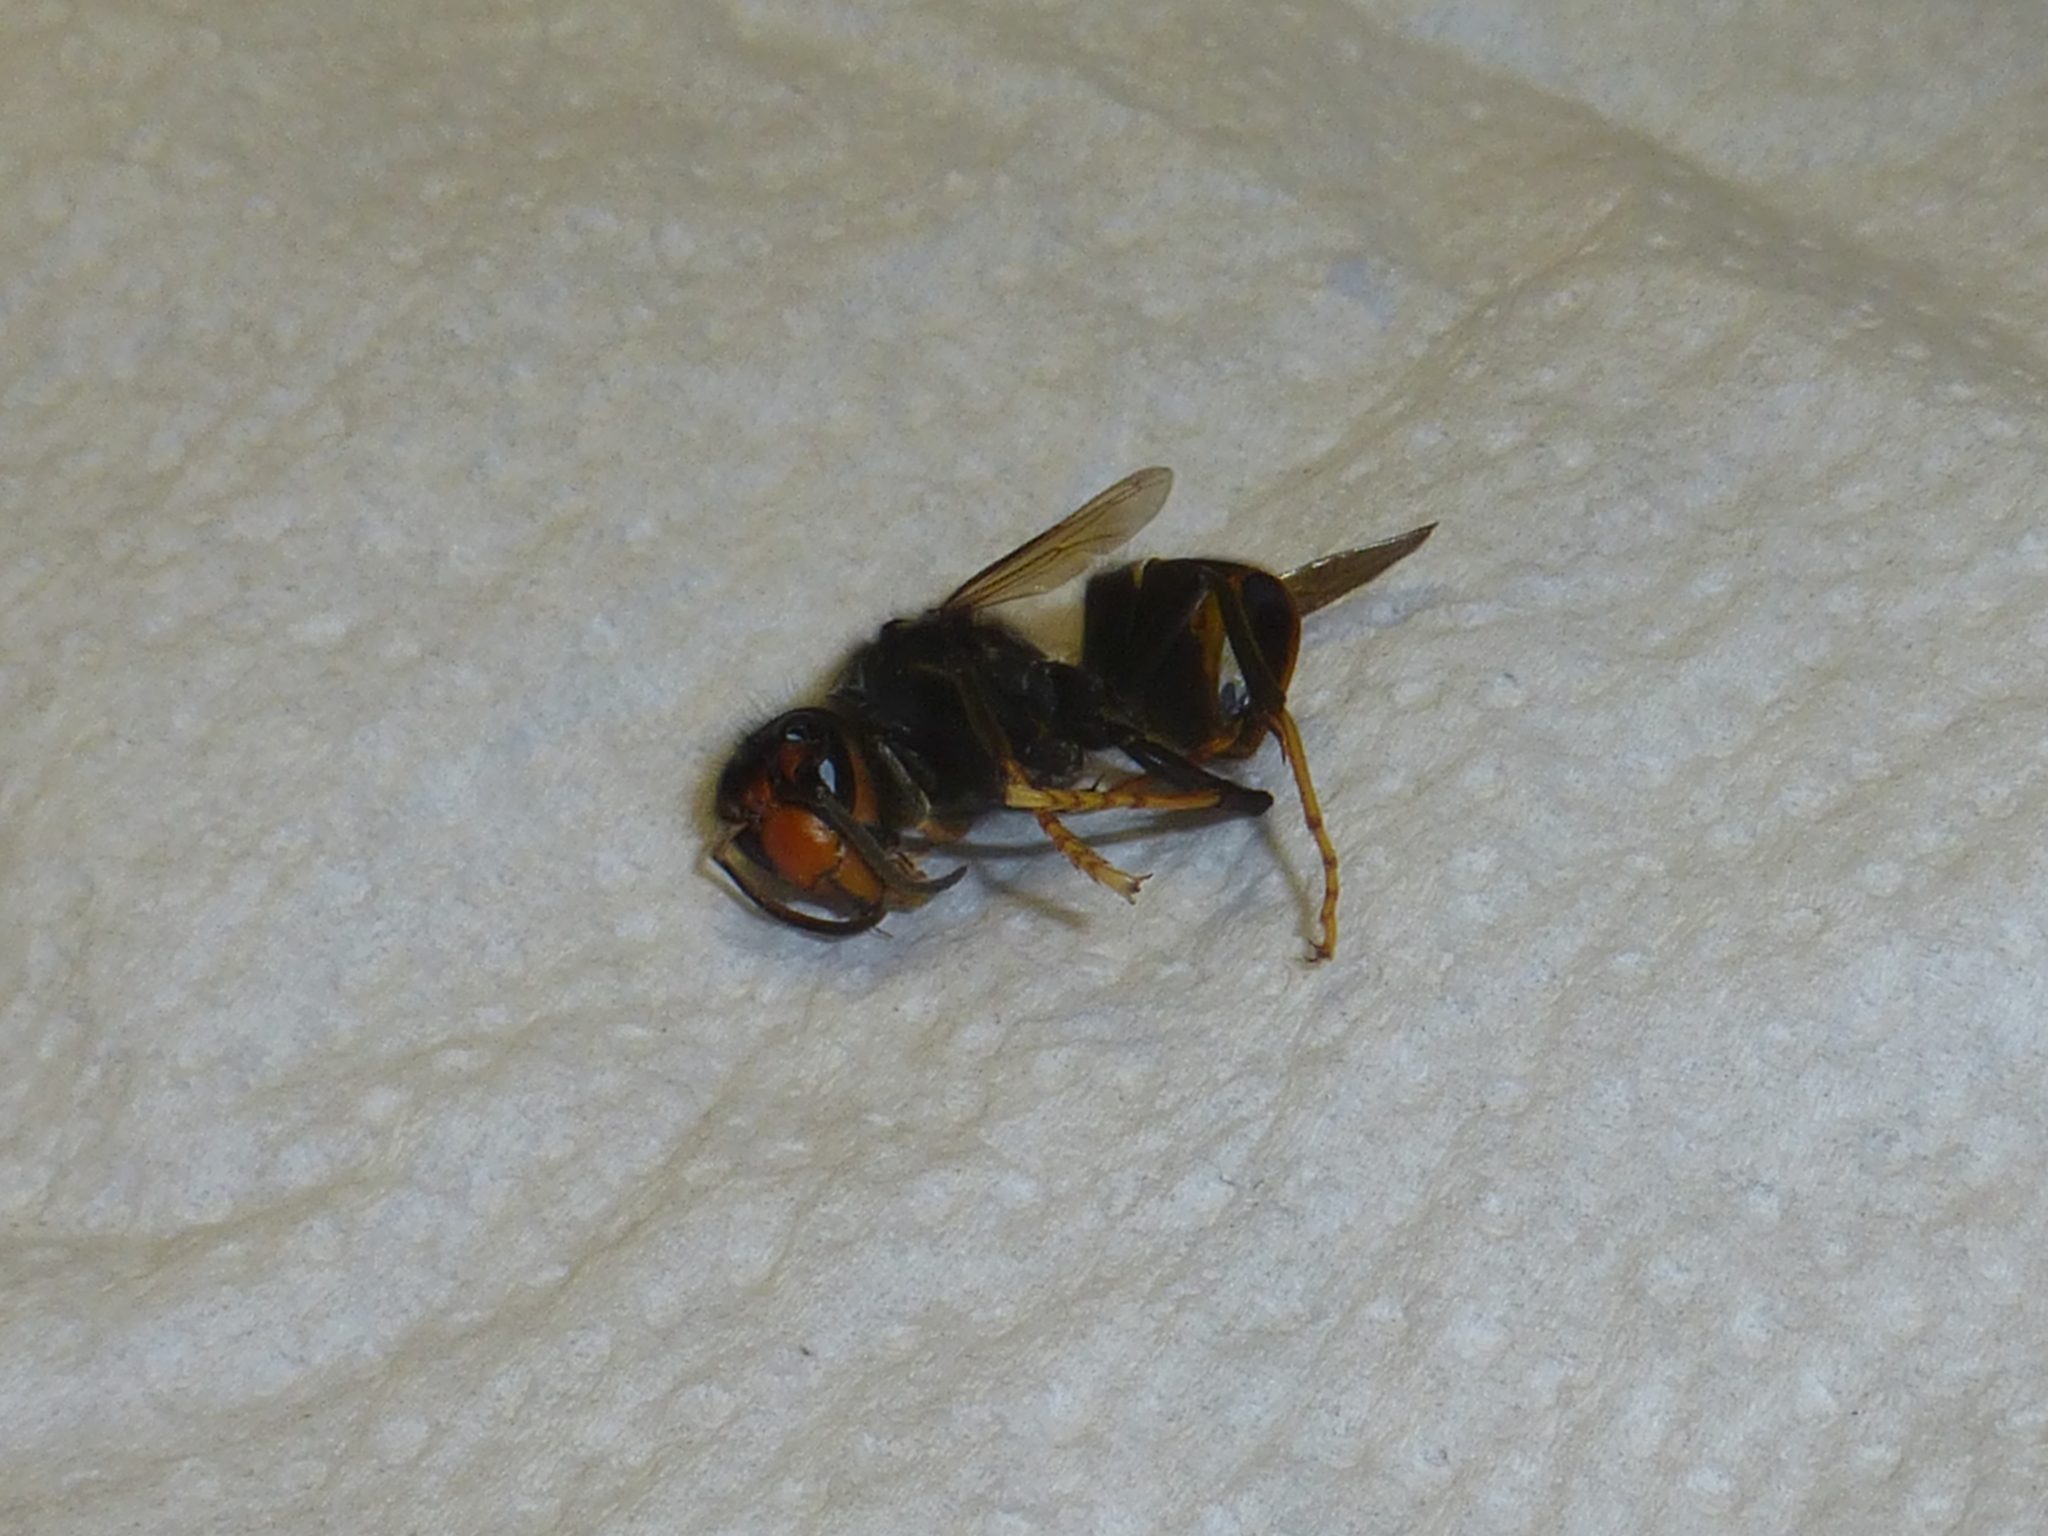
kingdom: Animalia
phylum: Arthropoda
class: Insecta
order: Hymenoptera
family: Vespidae
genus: Vespa
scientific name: Vespa velutina
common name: Asian hornet
